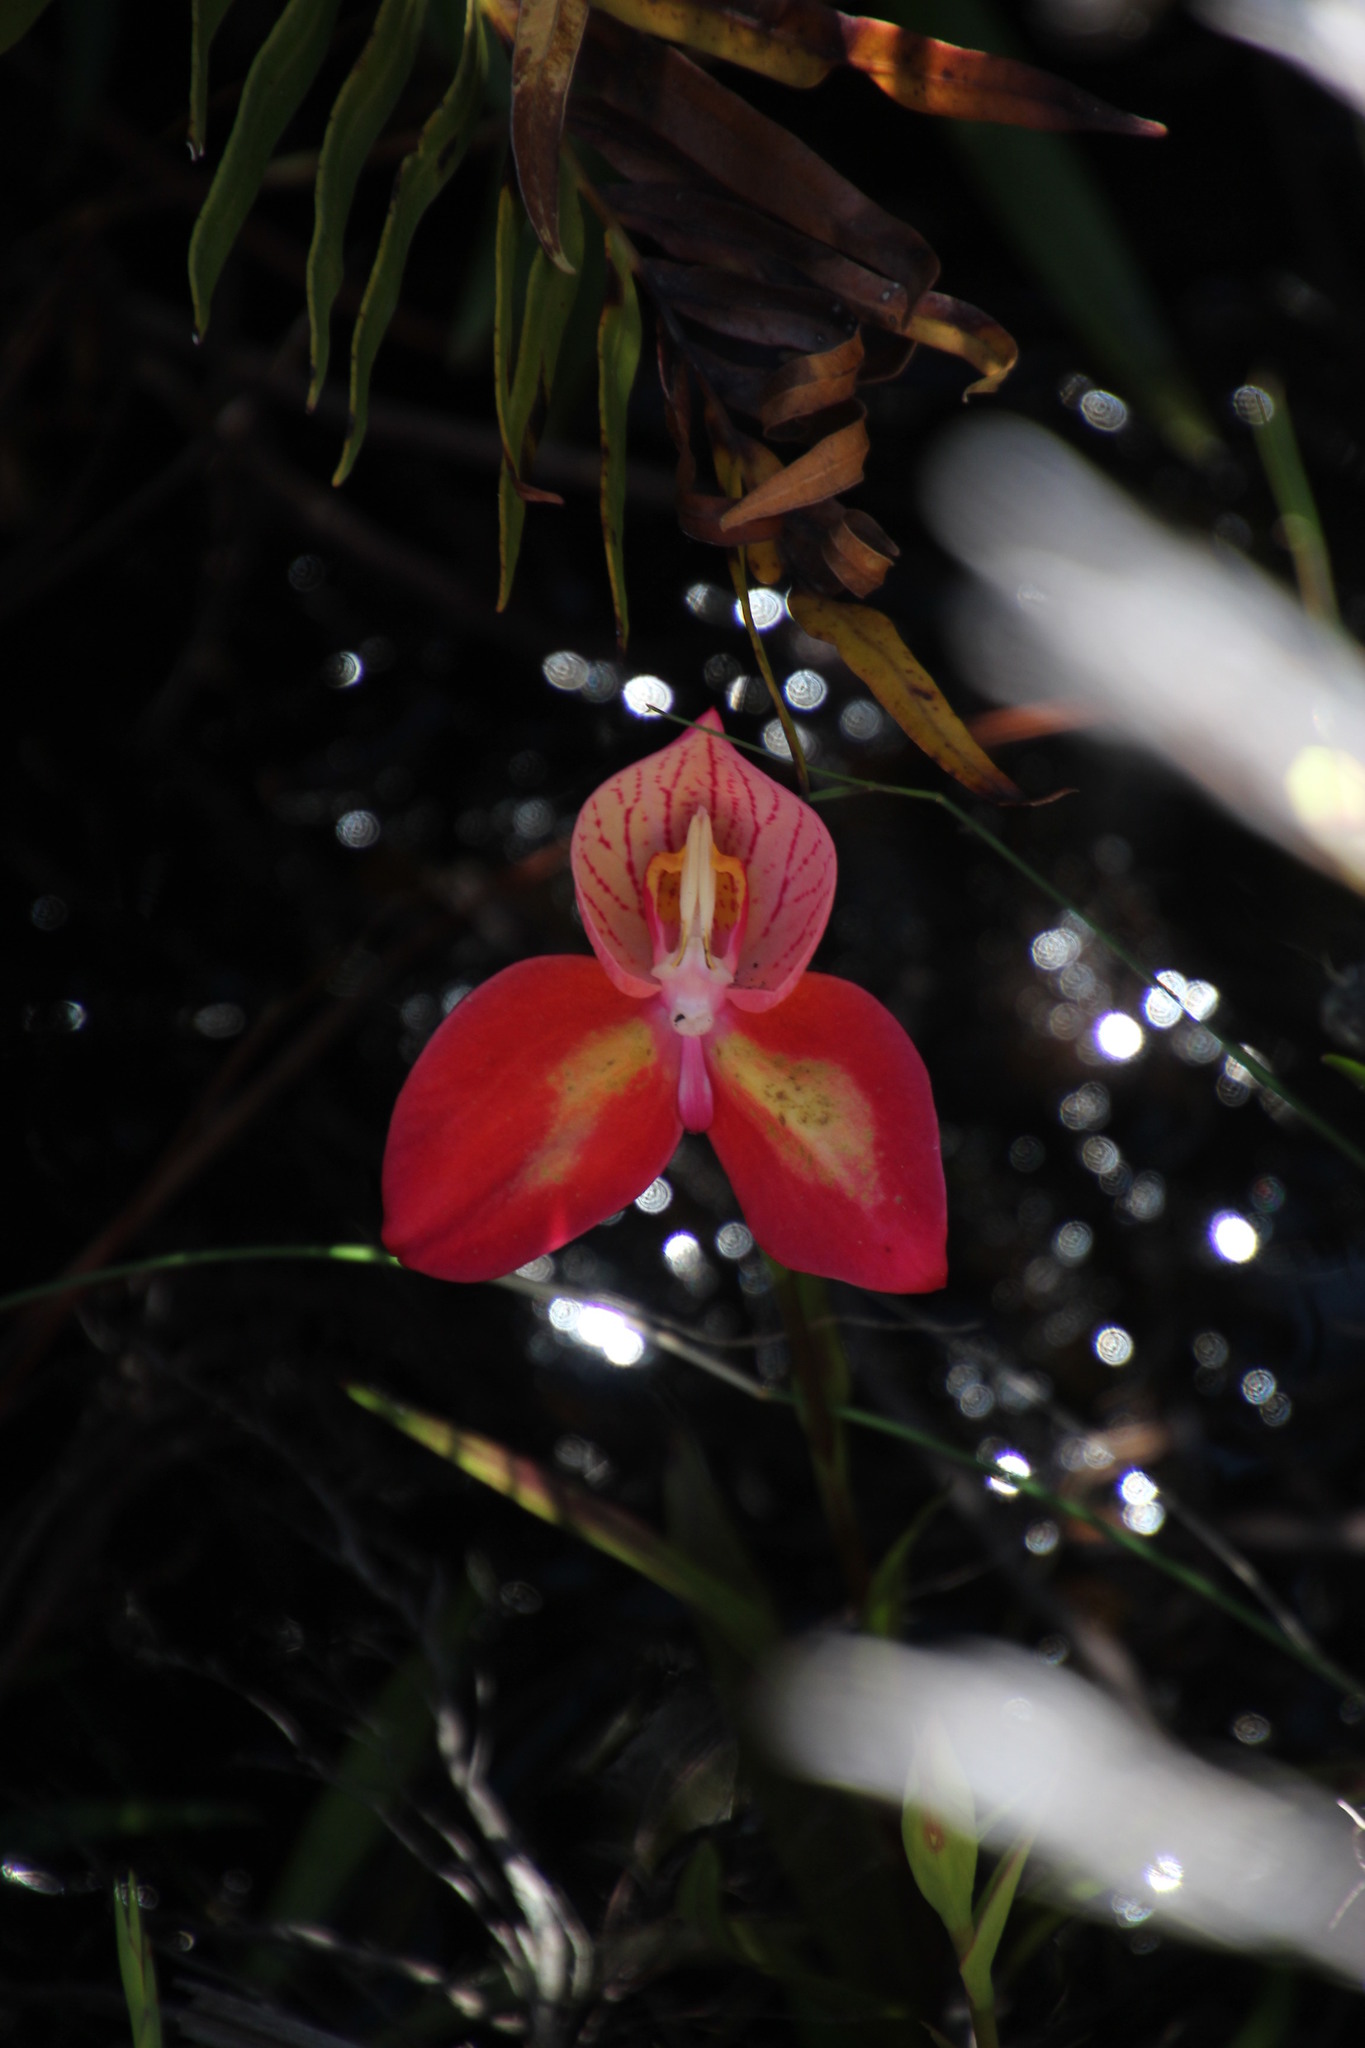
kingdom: Plantae
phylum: Tracheophyta
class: Liliopsida
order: Asparagales
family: Orchidaceae
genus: Disa
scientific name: Disa uniflora
